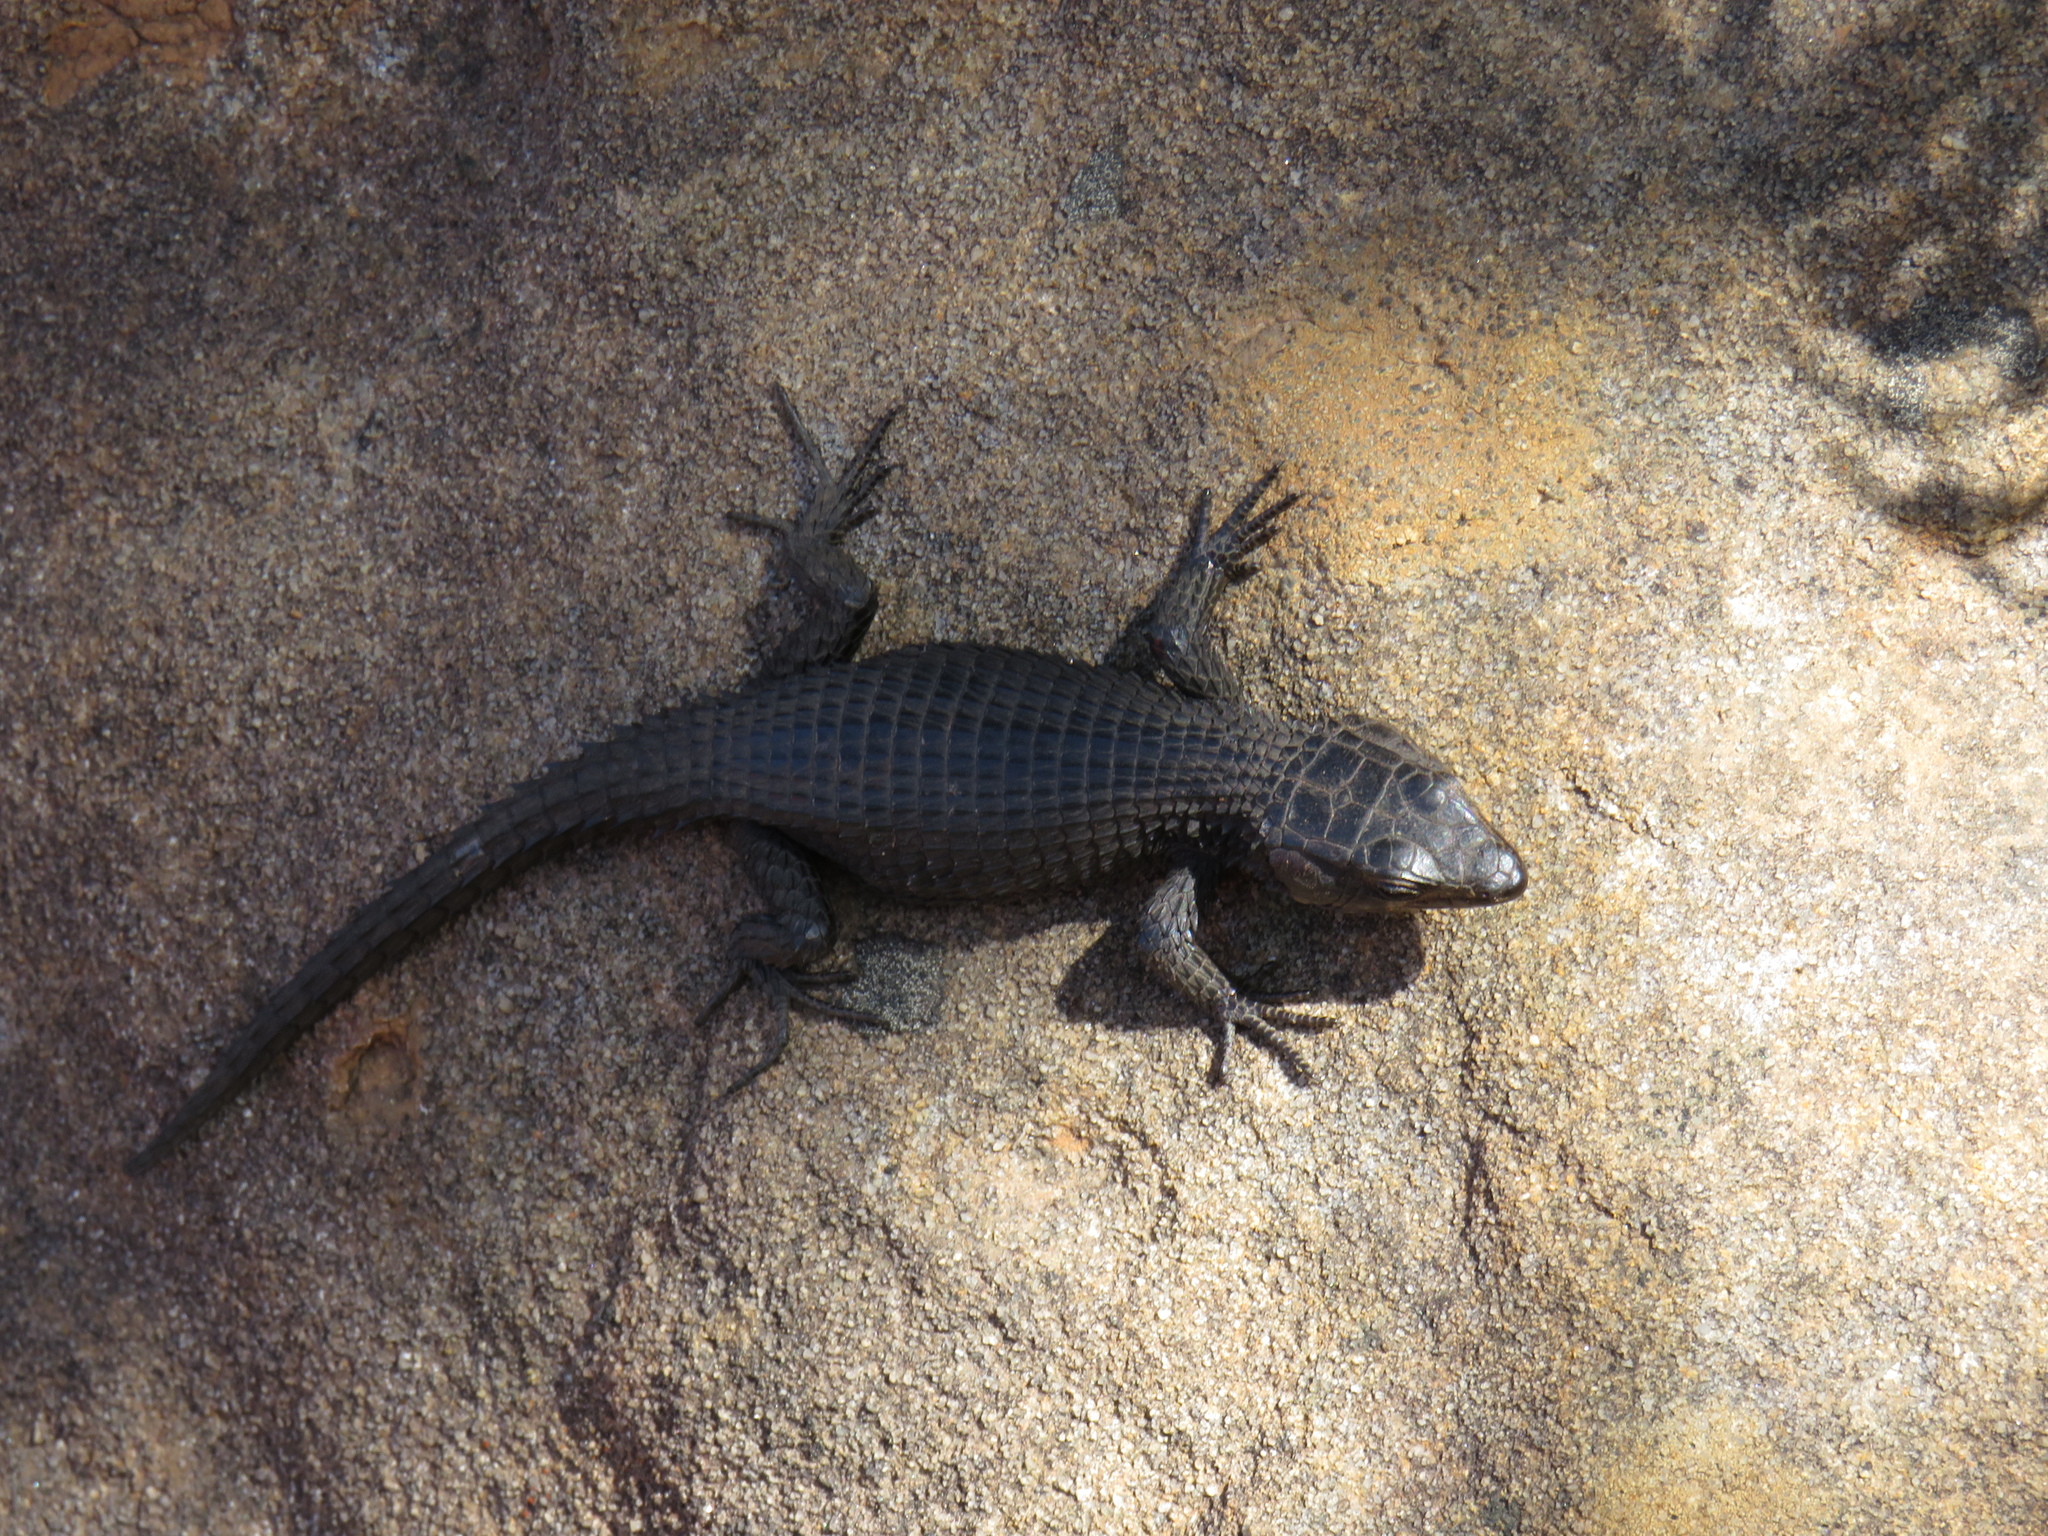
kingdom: Animalia
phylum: Chordata
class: Squamata
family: Cordylidae
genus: Cordylus
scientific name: Cordylus niger
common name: Black girdled lizard
